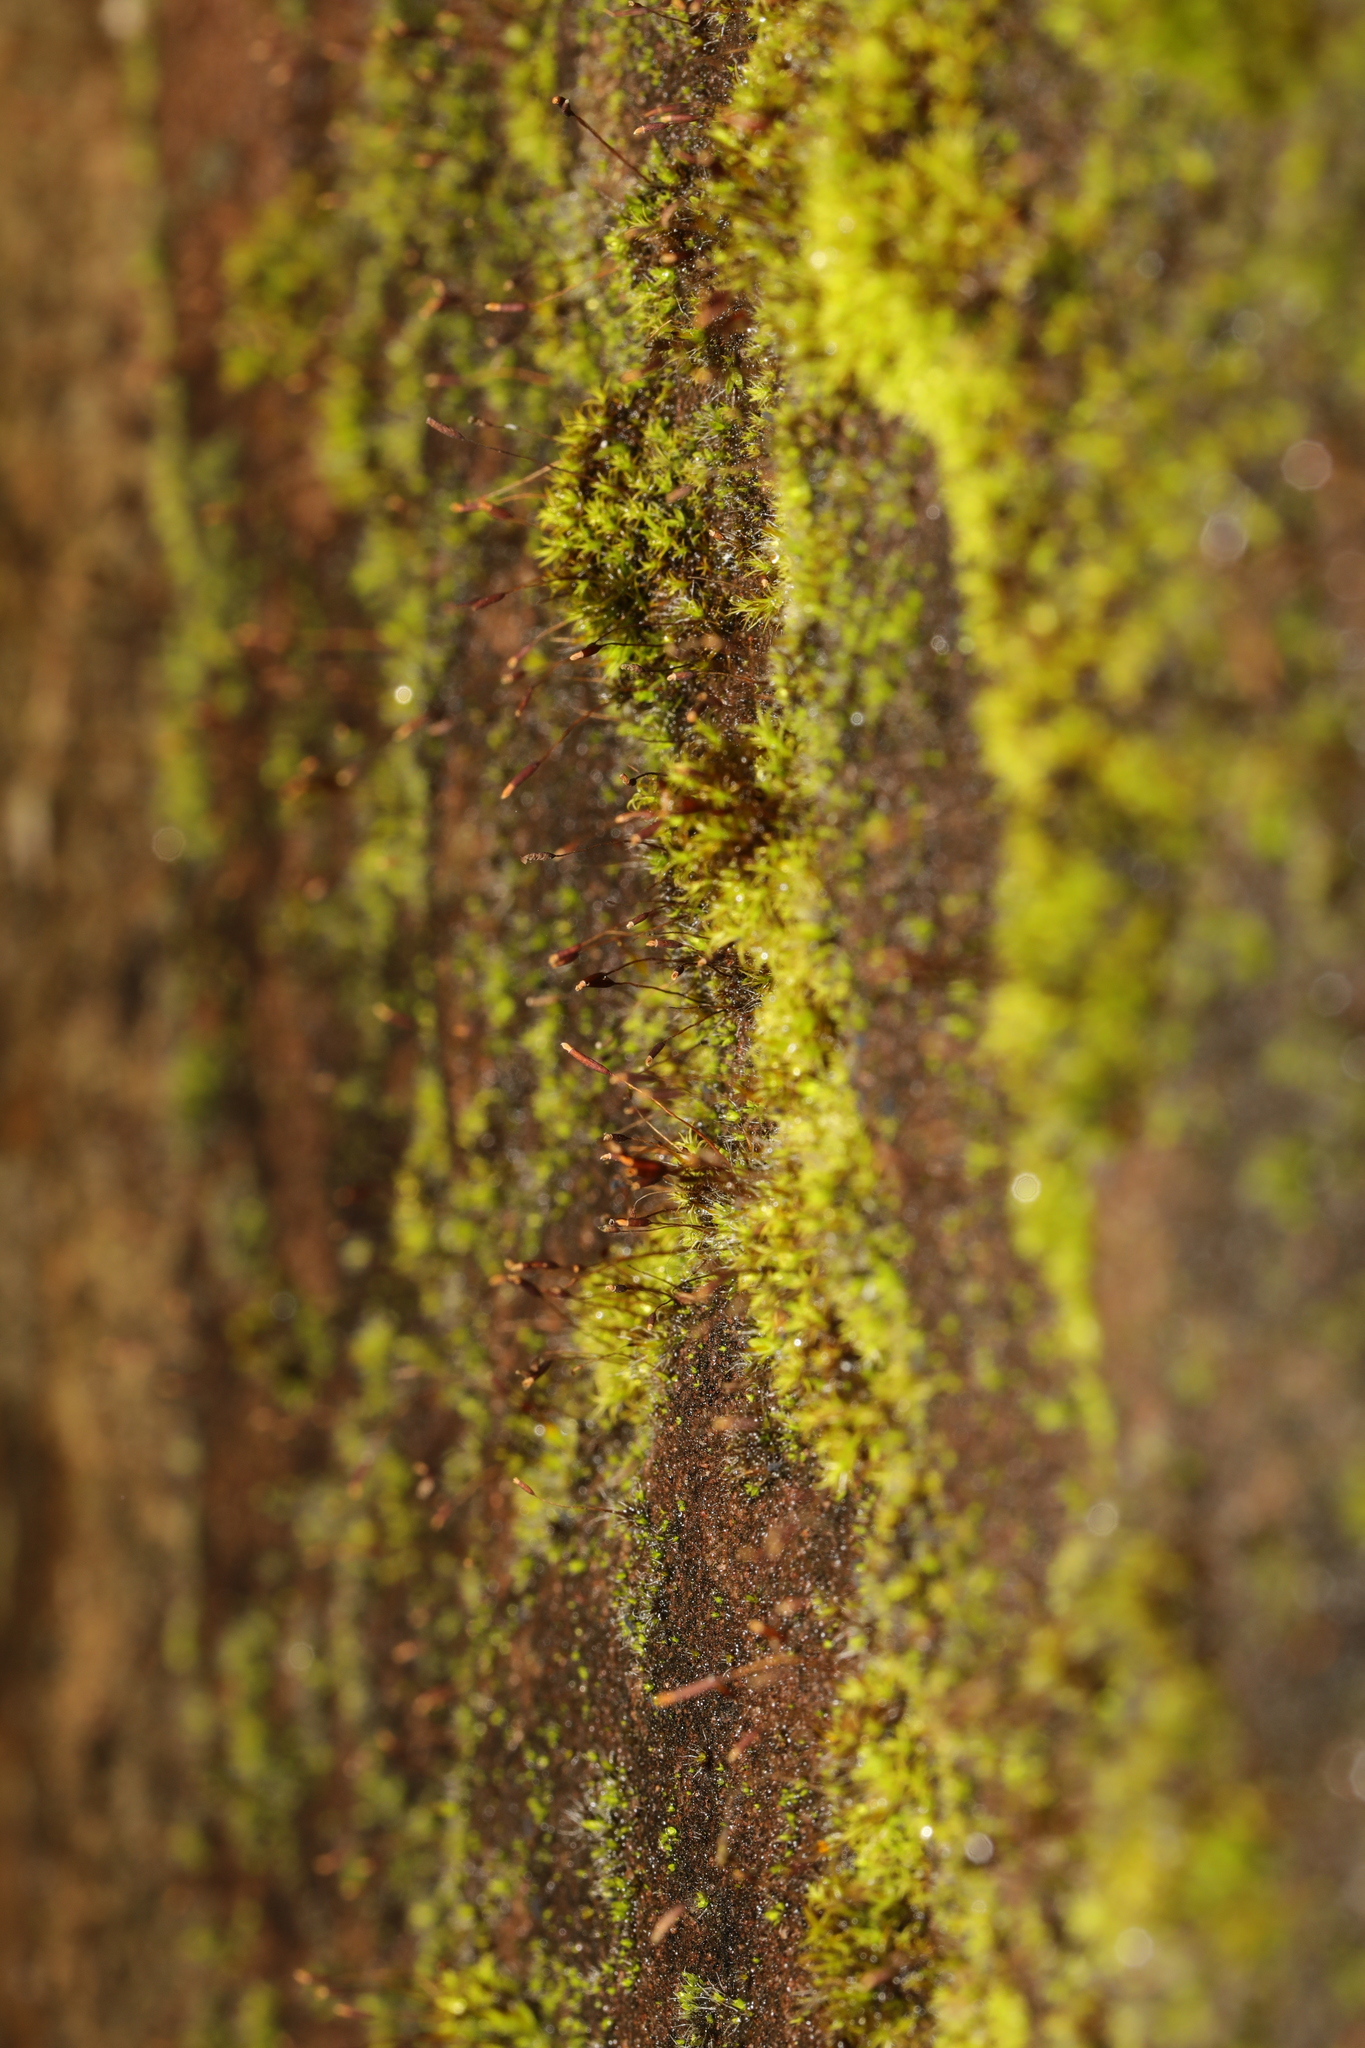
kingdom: Plantae
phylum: Bryophyta
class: Bryopsida
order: Pottiales
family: Pottiaceae
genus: Tortula
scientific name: Tortula muralis
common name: Wall screw-moss
